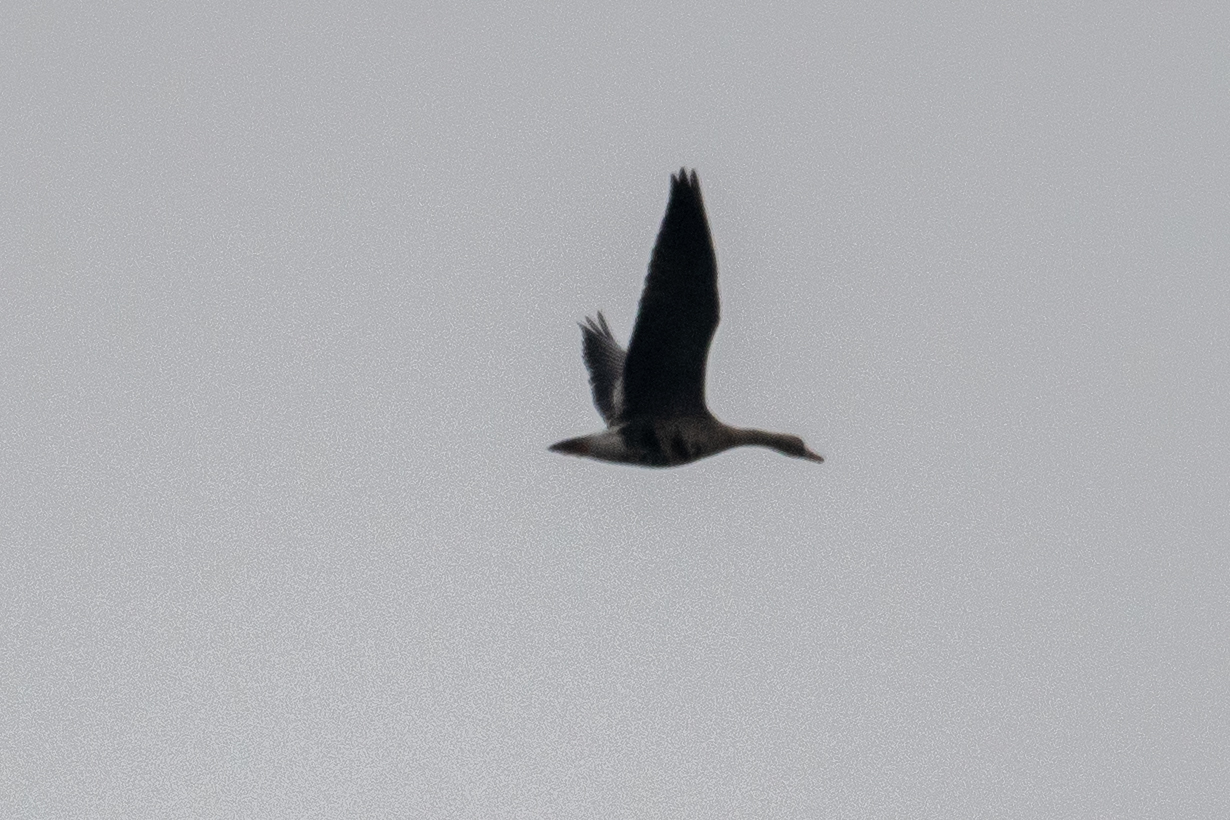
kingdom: Animalia
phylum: Chordata
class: Aves
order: Anseriformes
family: Anatidae
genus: Anser
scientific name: Anser albifrons
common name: Greater white-fronted goose
